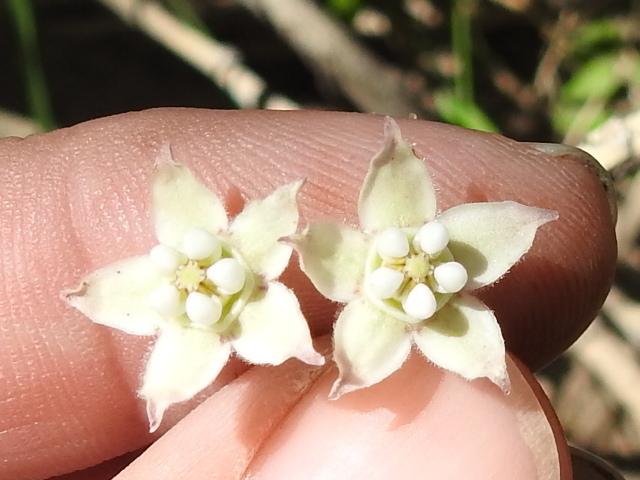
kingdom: Plantae
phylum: Tracheophyta
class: Magnoliopsida
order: Gentianales
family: Apocynaceae
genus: Funastrum
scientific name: Funastrum cynanchoides
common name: Climbing-milkweed
